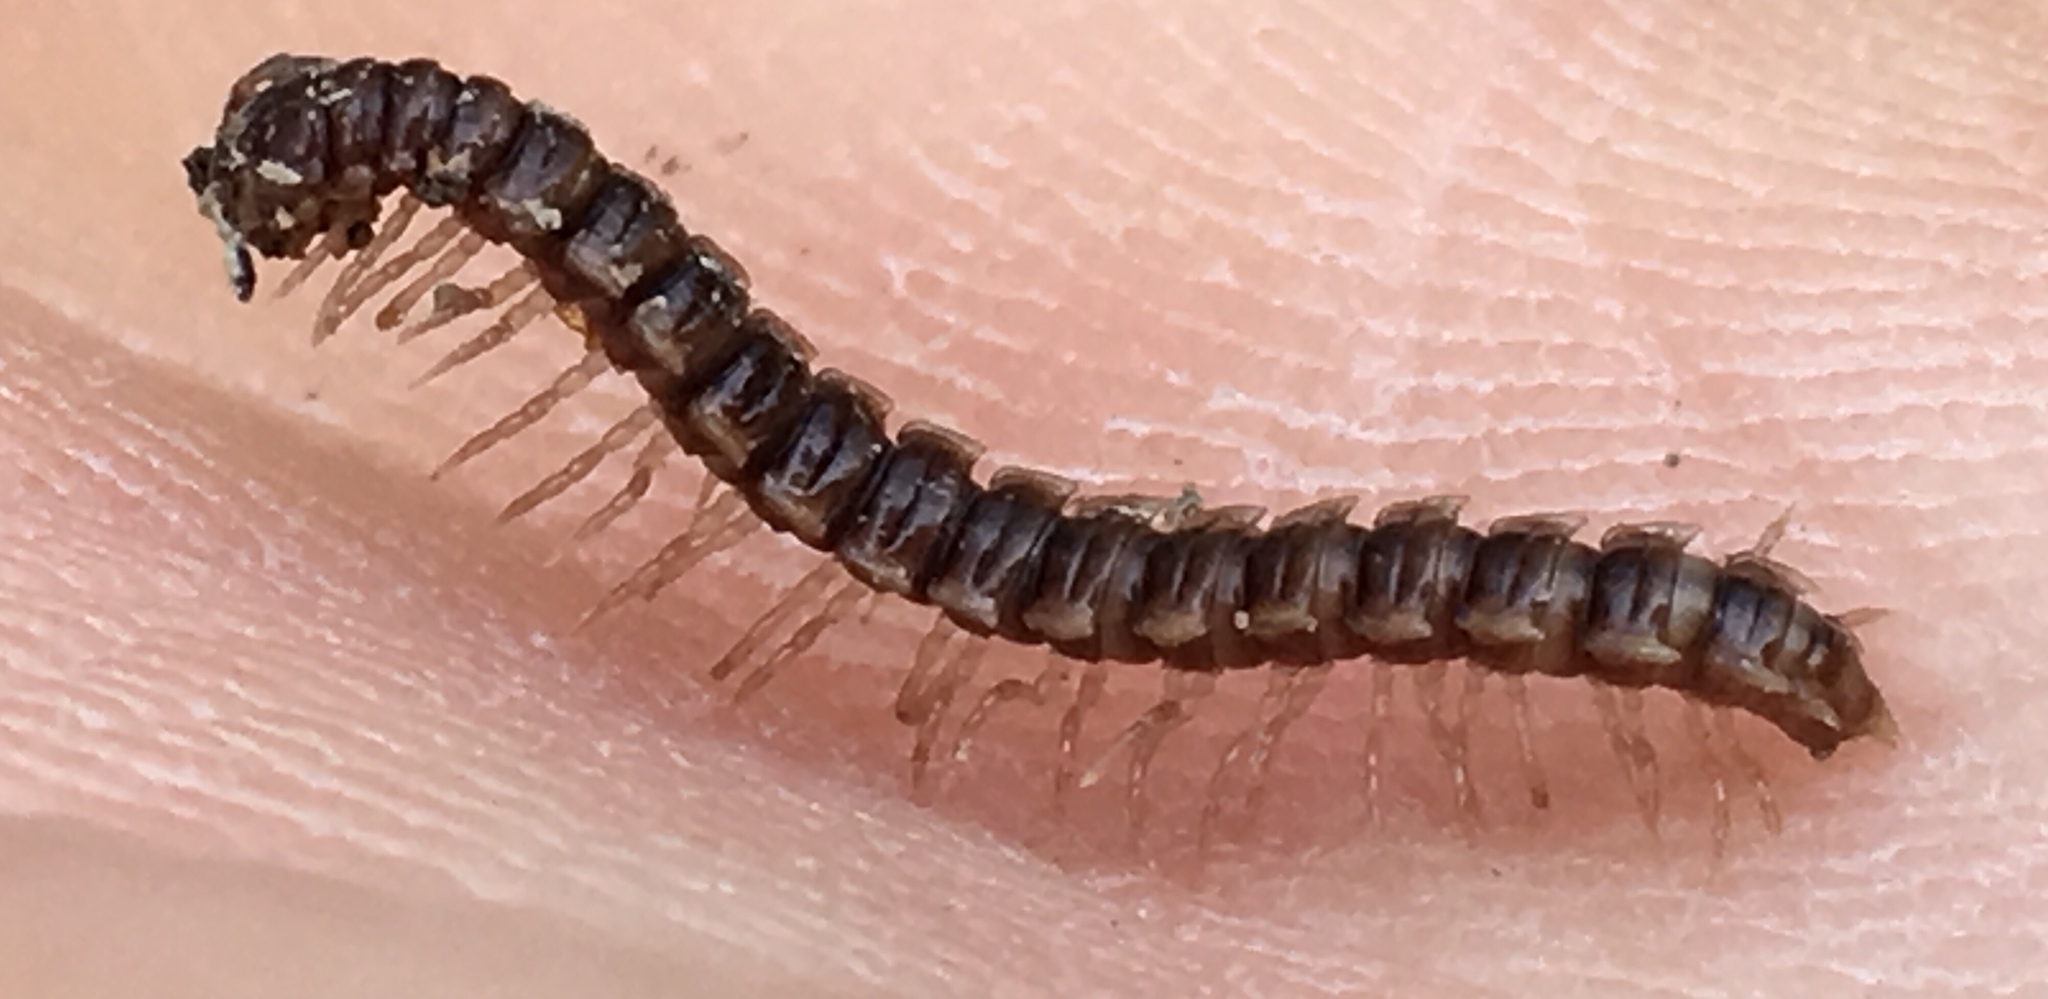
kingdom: Animalia
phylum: Arthropoda
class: Diplopoda
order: Polydesmida
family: Paradoxosomatidae
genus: Oxidus
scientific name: Oxidus gracilis
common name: Greenhouse millipede
